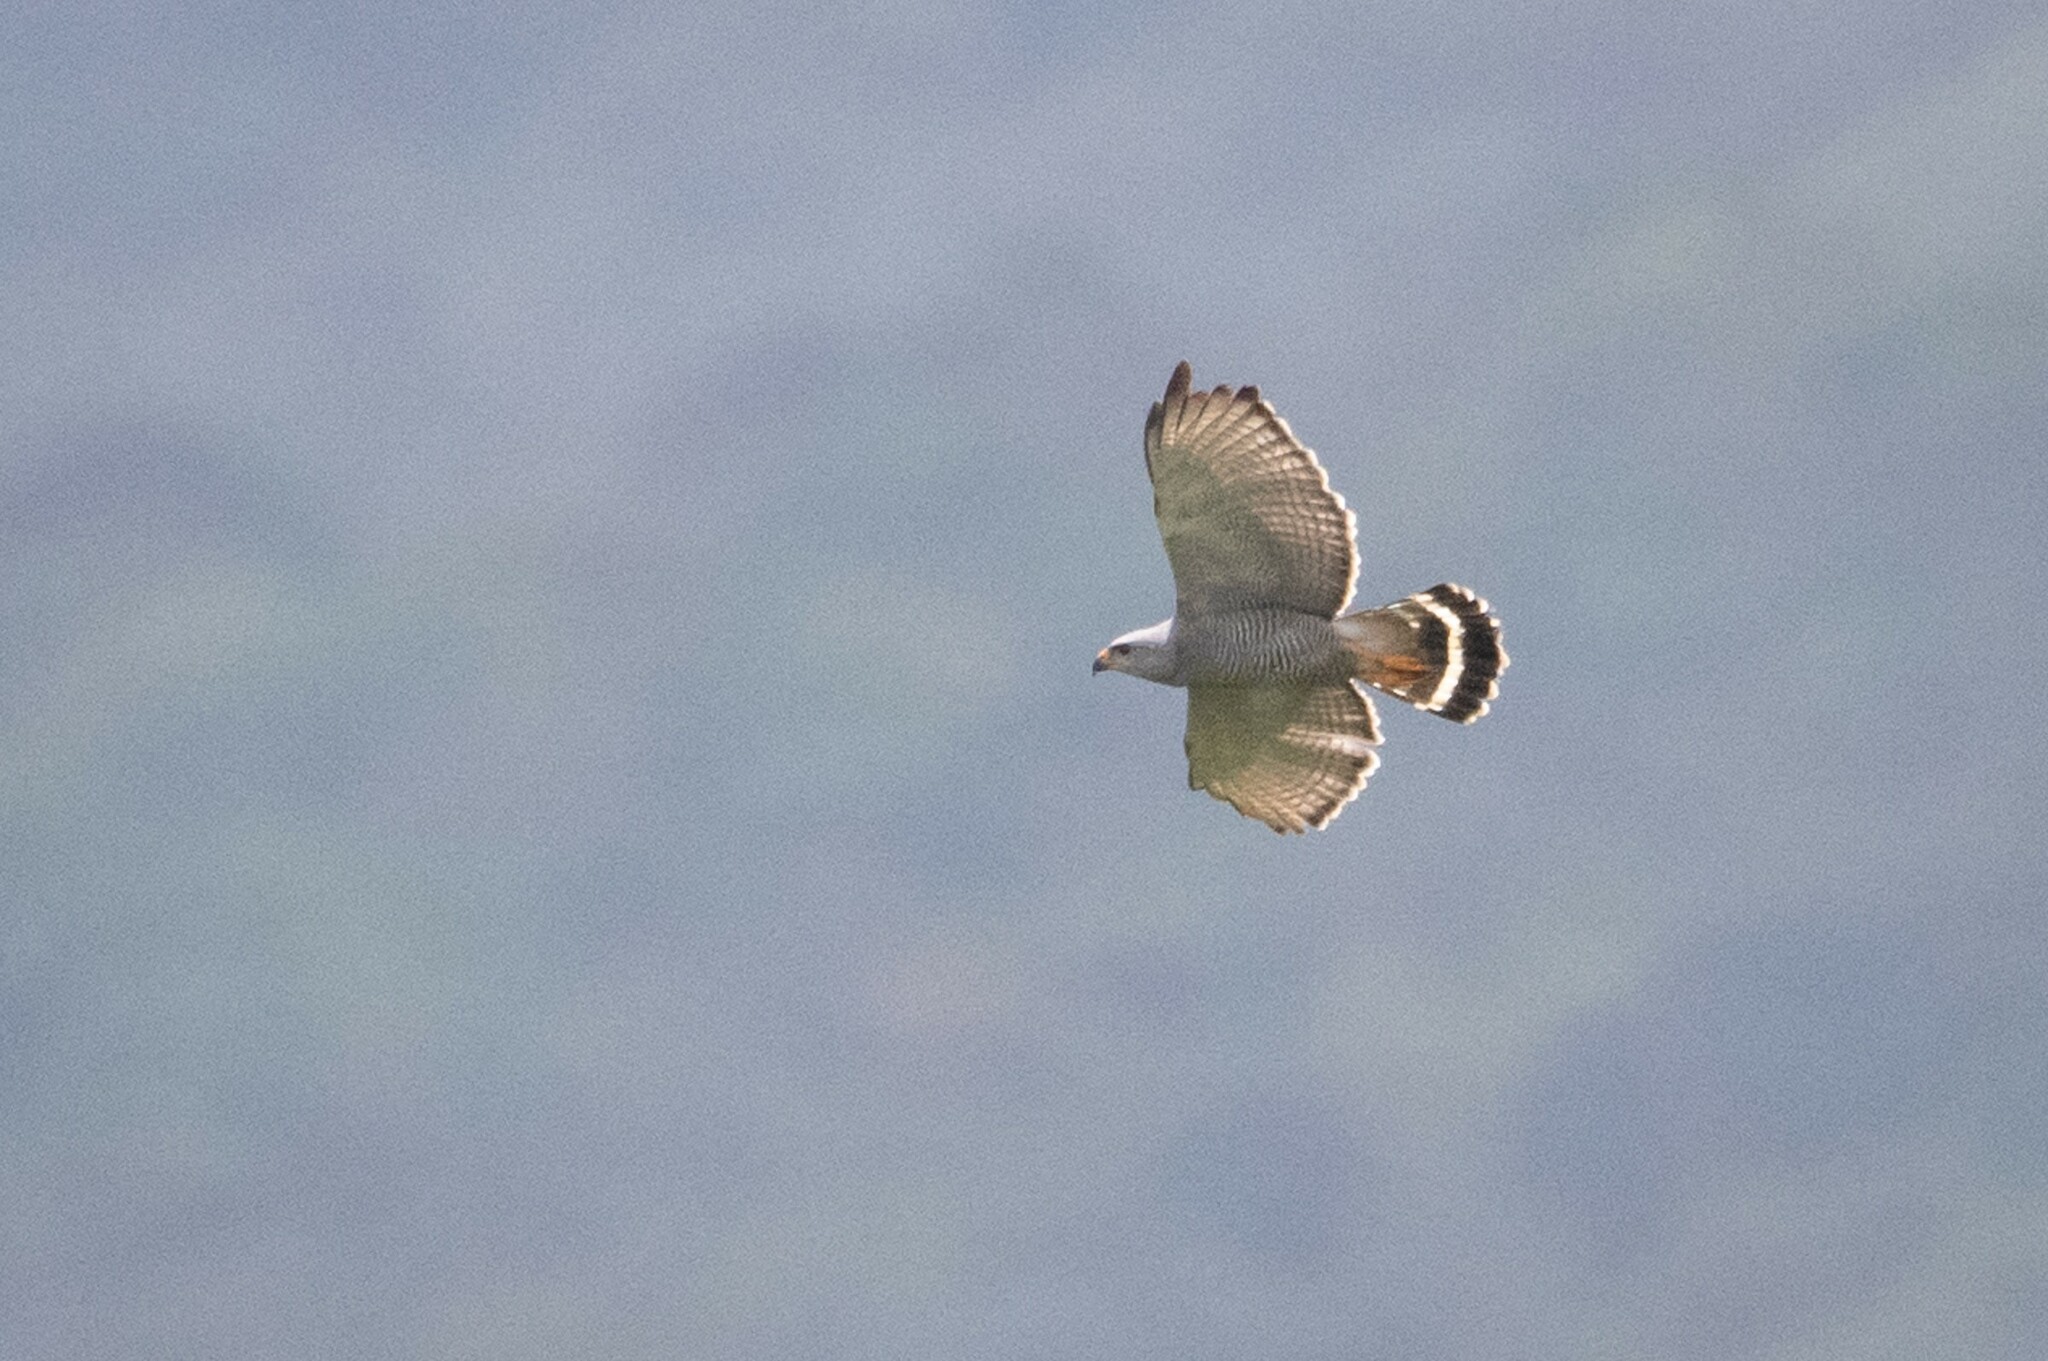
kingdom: Animalia
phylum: Chordata
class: Aves
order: Accipitriformes
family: Accipitridae
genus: Buteo
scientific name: Buteo nitidus
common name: Grey-lined hawk
